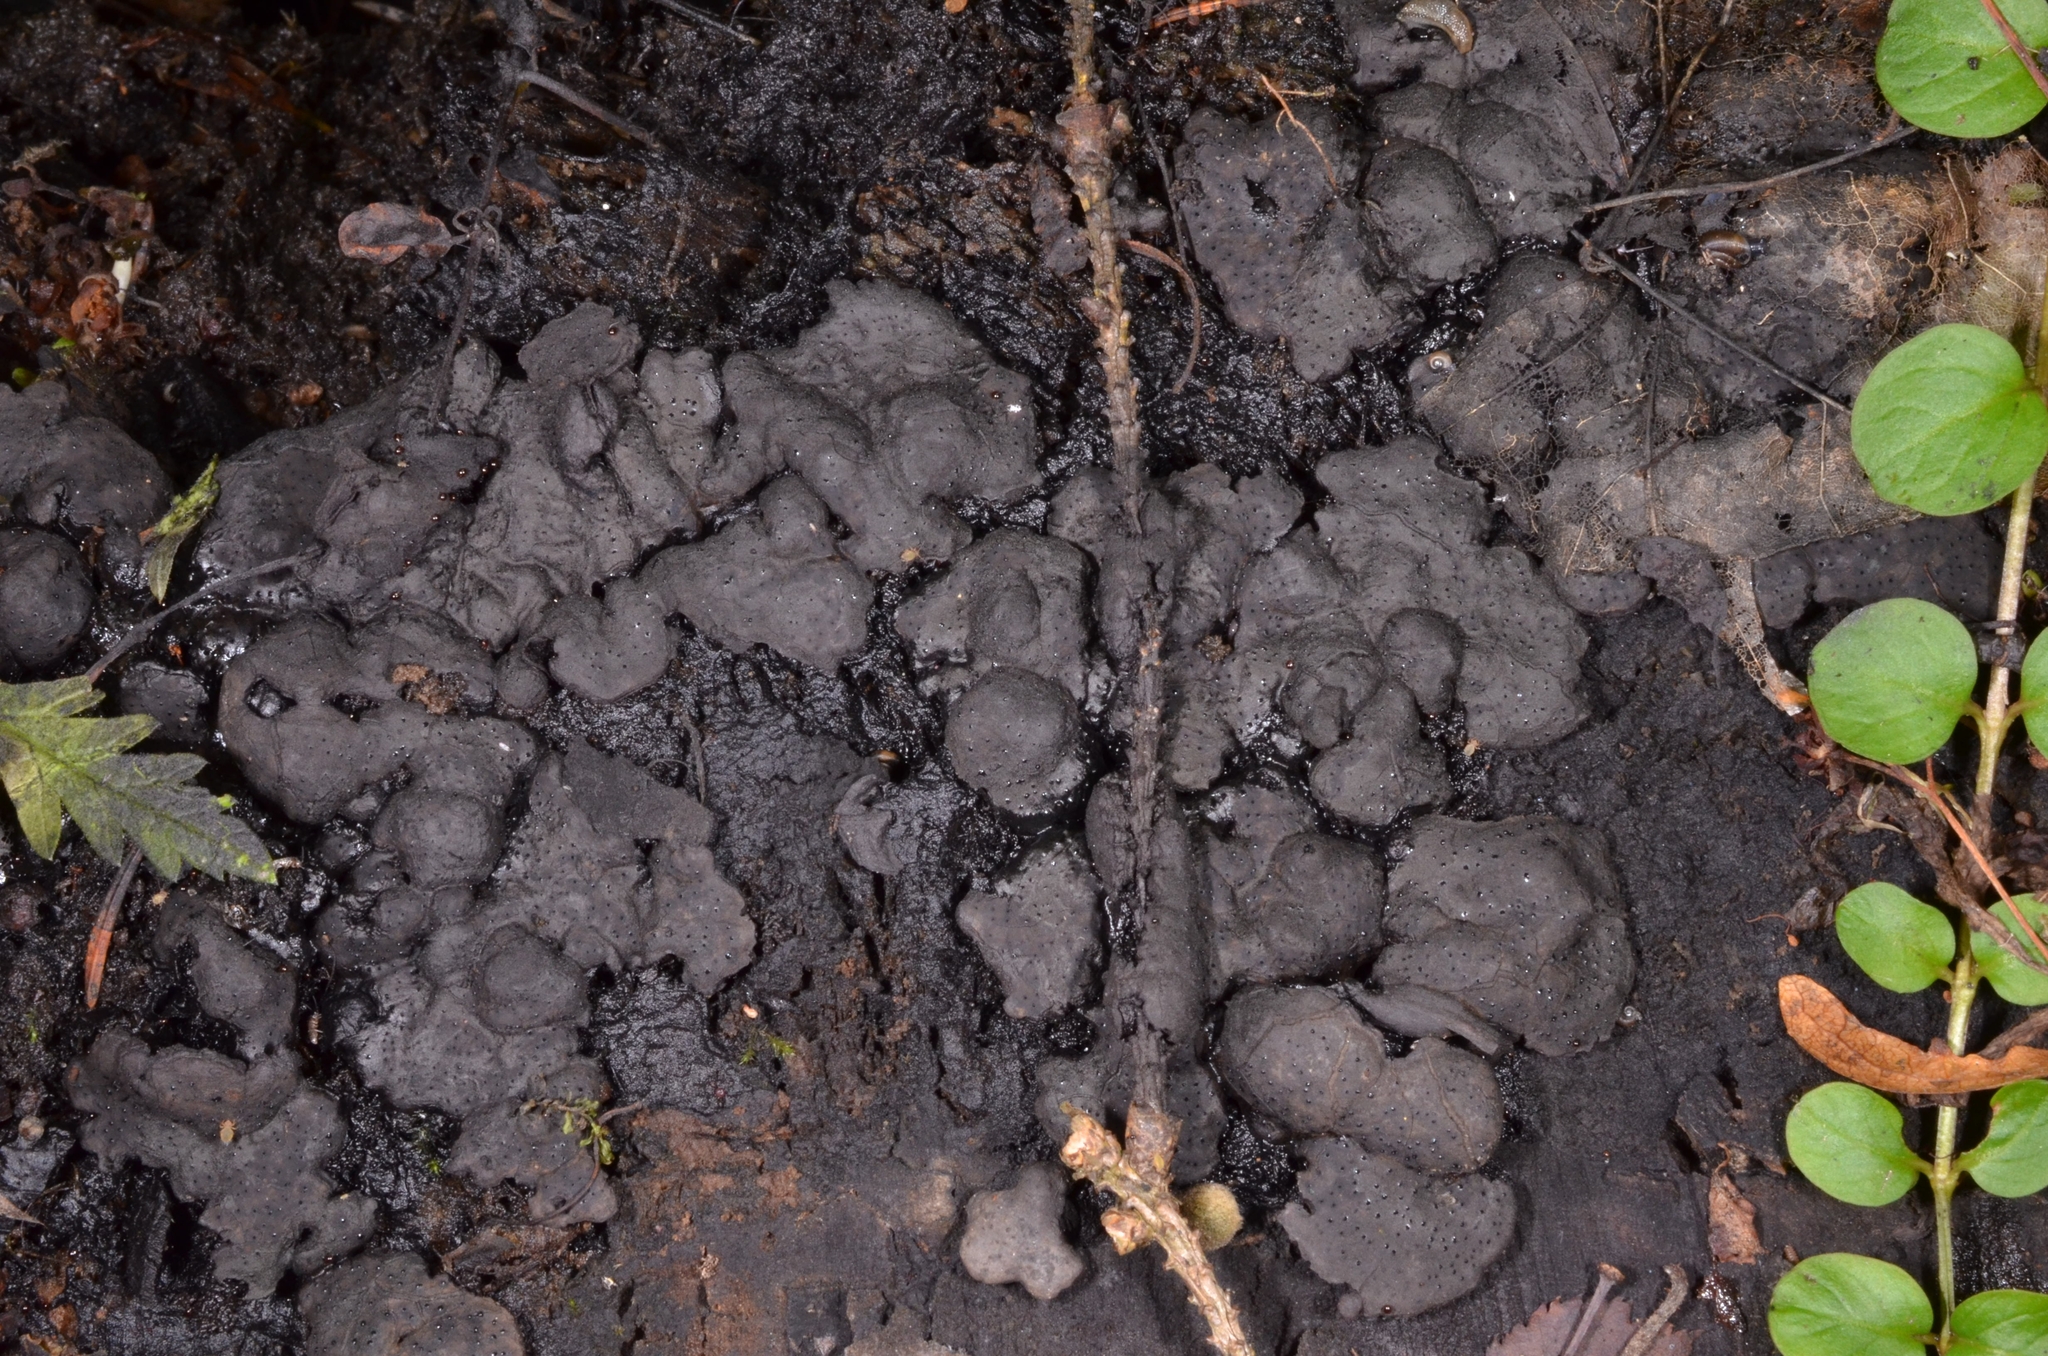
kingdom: Fungi
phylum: Ascomycota
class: Sordariomycetes
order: Xylariales
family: Xylariaceae
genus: Kretzschmaria
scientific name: Kretzschmaria deusta
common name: Brittle cinder
